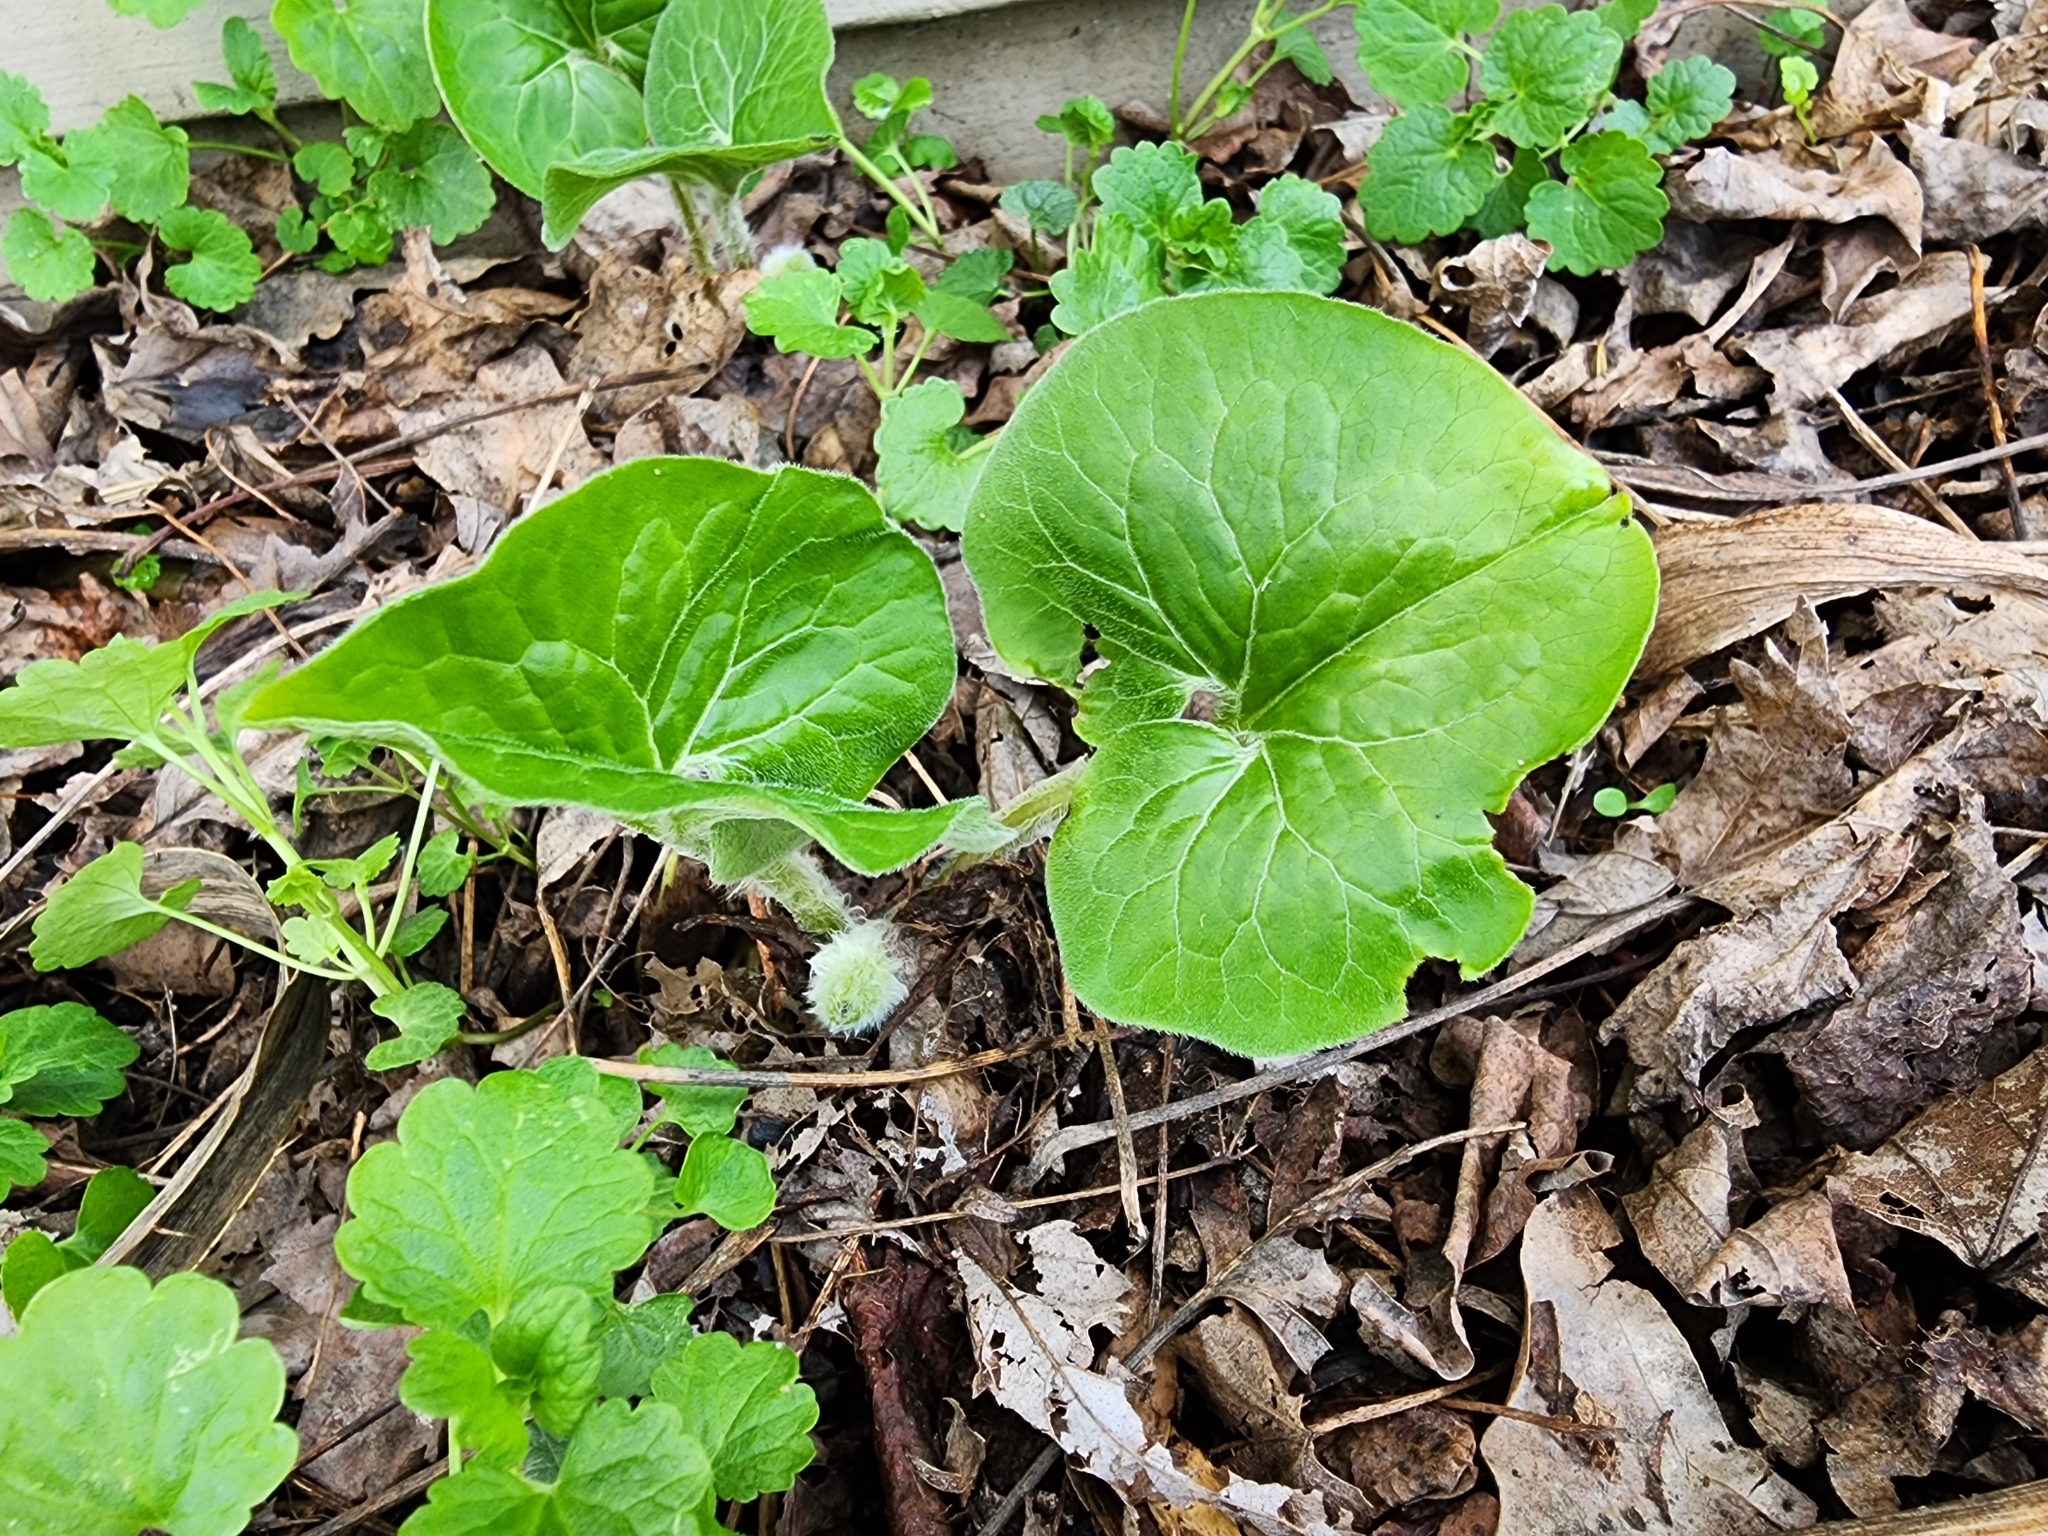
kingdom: Plantae
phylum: Tracheophyta
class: Magnoliopsida
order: Piperales
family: Aristolochiaceae
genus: Asarum
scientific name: Asarum canadense
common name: Wild ginger
